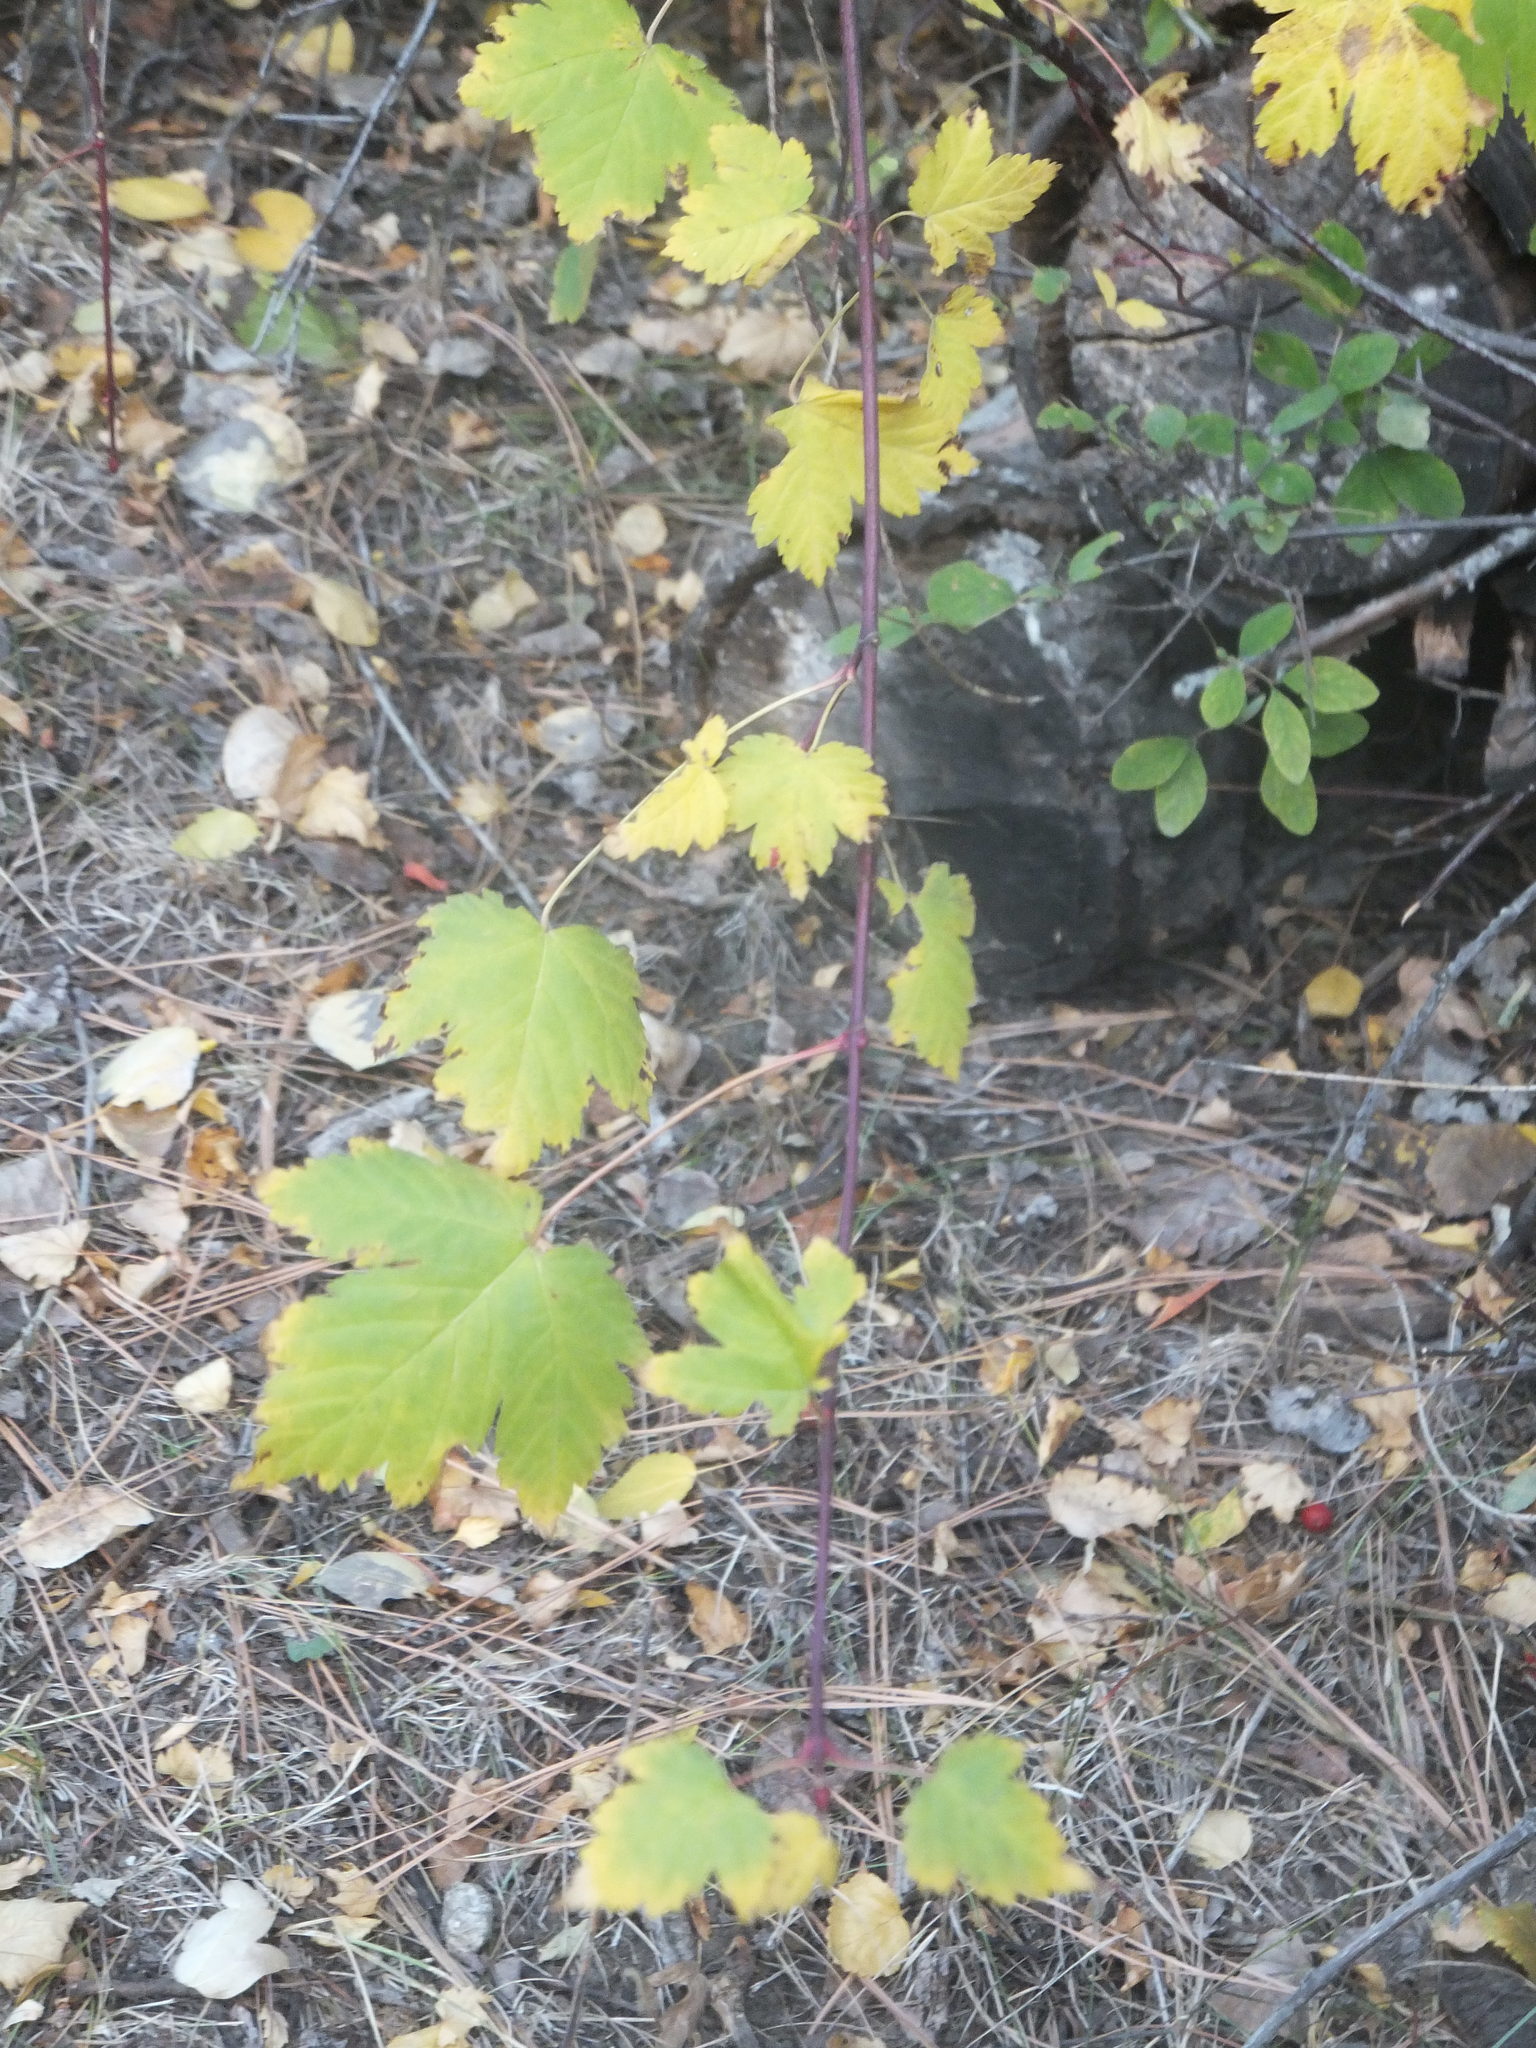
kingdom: Plantae
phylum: Tracheophyta
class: Magnoliopsida
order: Sapindales
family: Sapindaceae
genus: Acer
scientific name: Acer glabrum
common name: Rocky mountain maple
